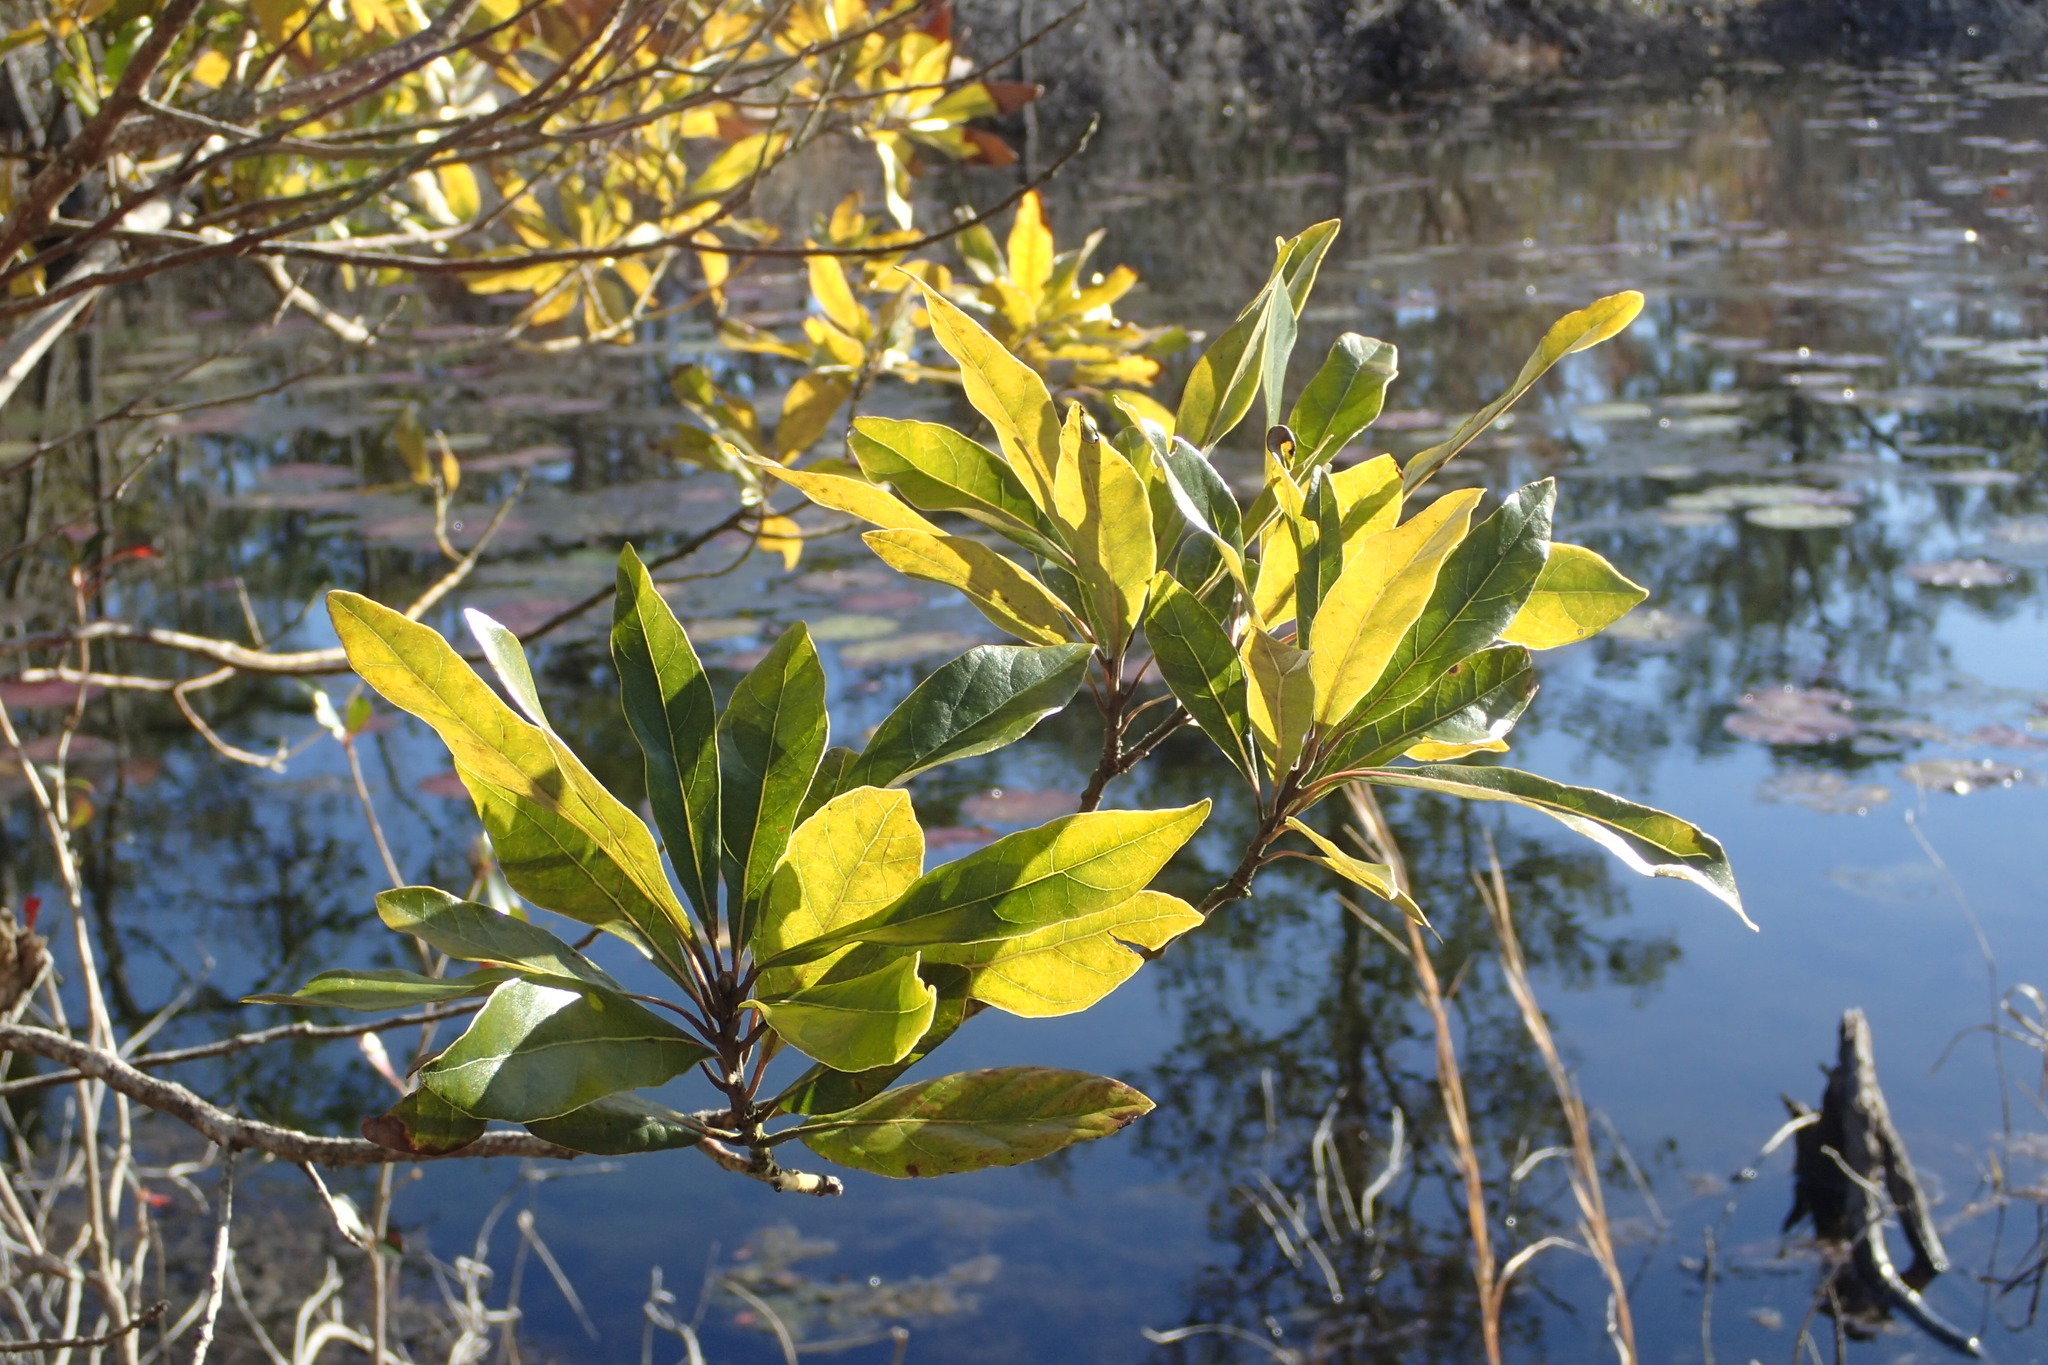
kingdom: Plantae
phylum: Tracheophyta
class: Magnoliopsida
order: Laurales
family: Lauraceae
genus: Persea
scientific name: Persea palustris
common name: Swampbay
